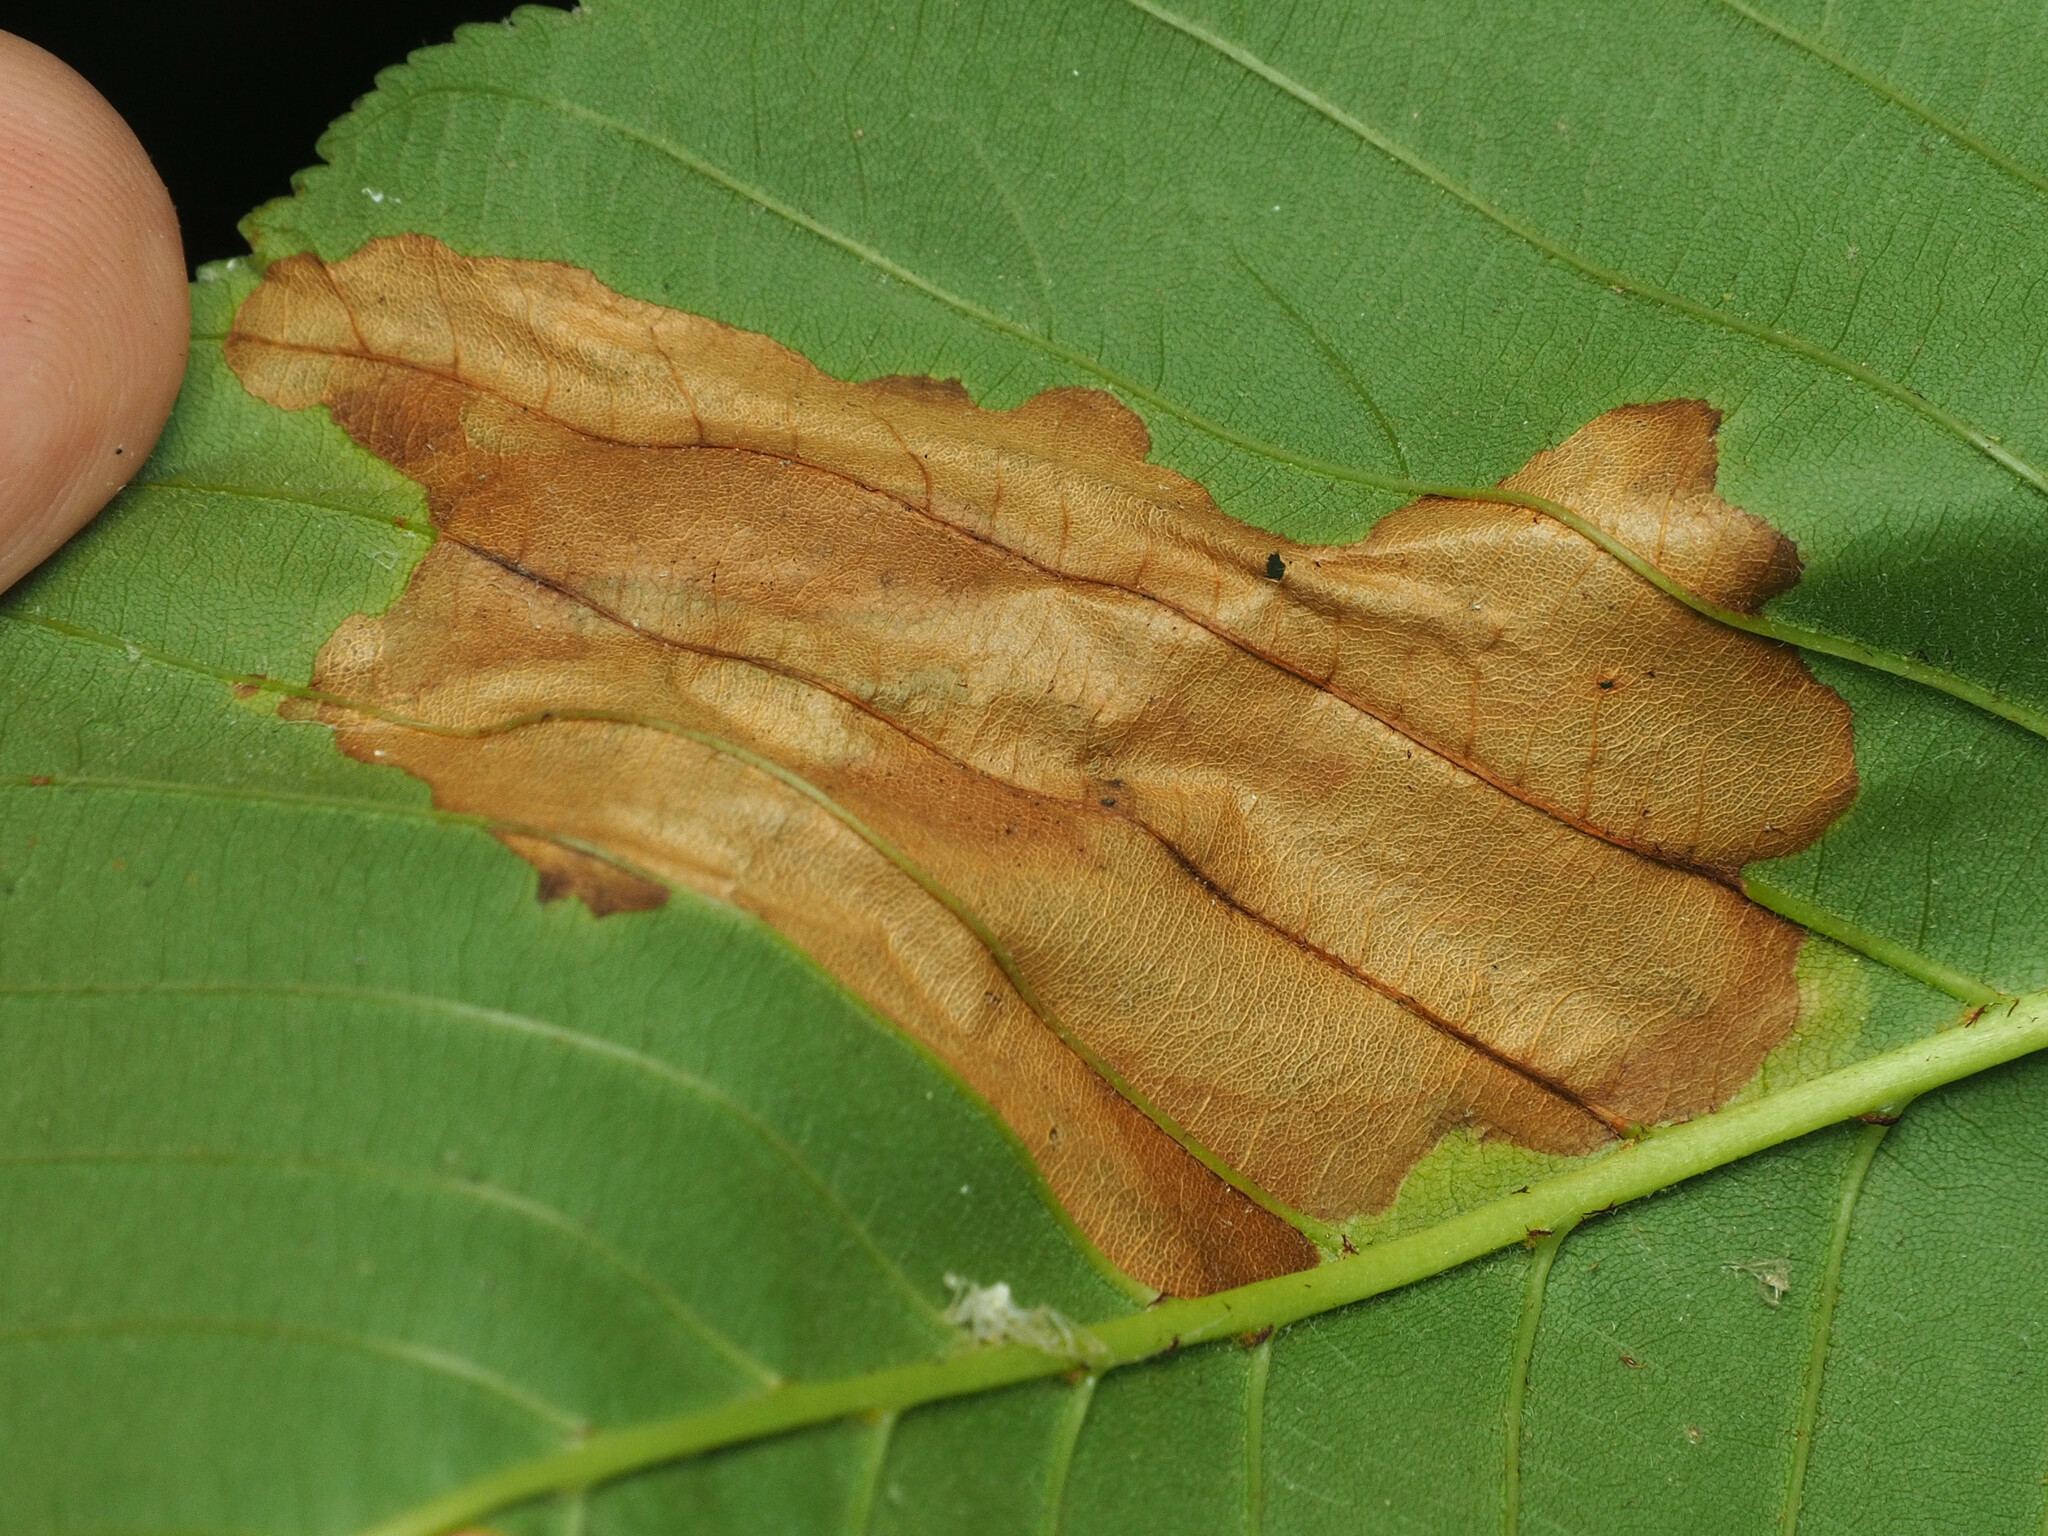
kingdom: Animalia
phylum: Arthropoda
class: Insecta
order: Lepidoptera
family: Gracillariidae
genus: Cameraria
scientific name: Cameraria aesculisella
